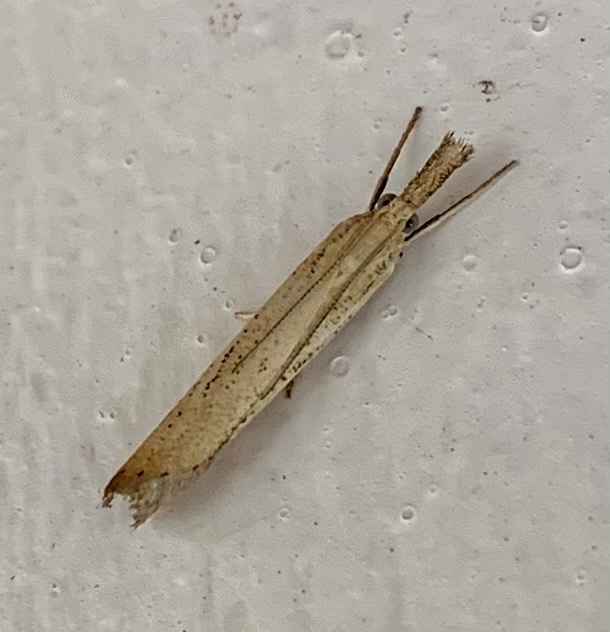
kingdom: Animalia
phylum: Arthropoda
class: Insecta
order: Lepidoptera
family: Crambidae
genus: Agriphila
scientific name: Agriphila straminella
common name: Straw grass-veneer
